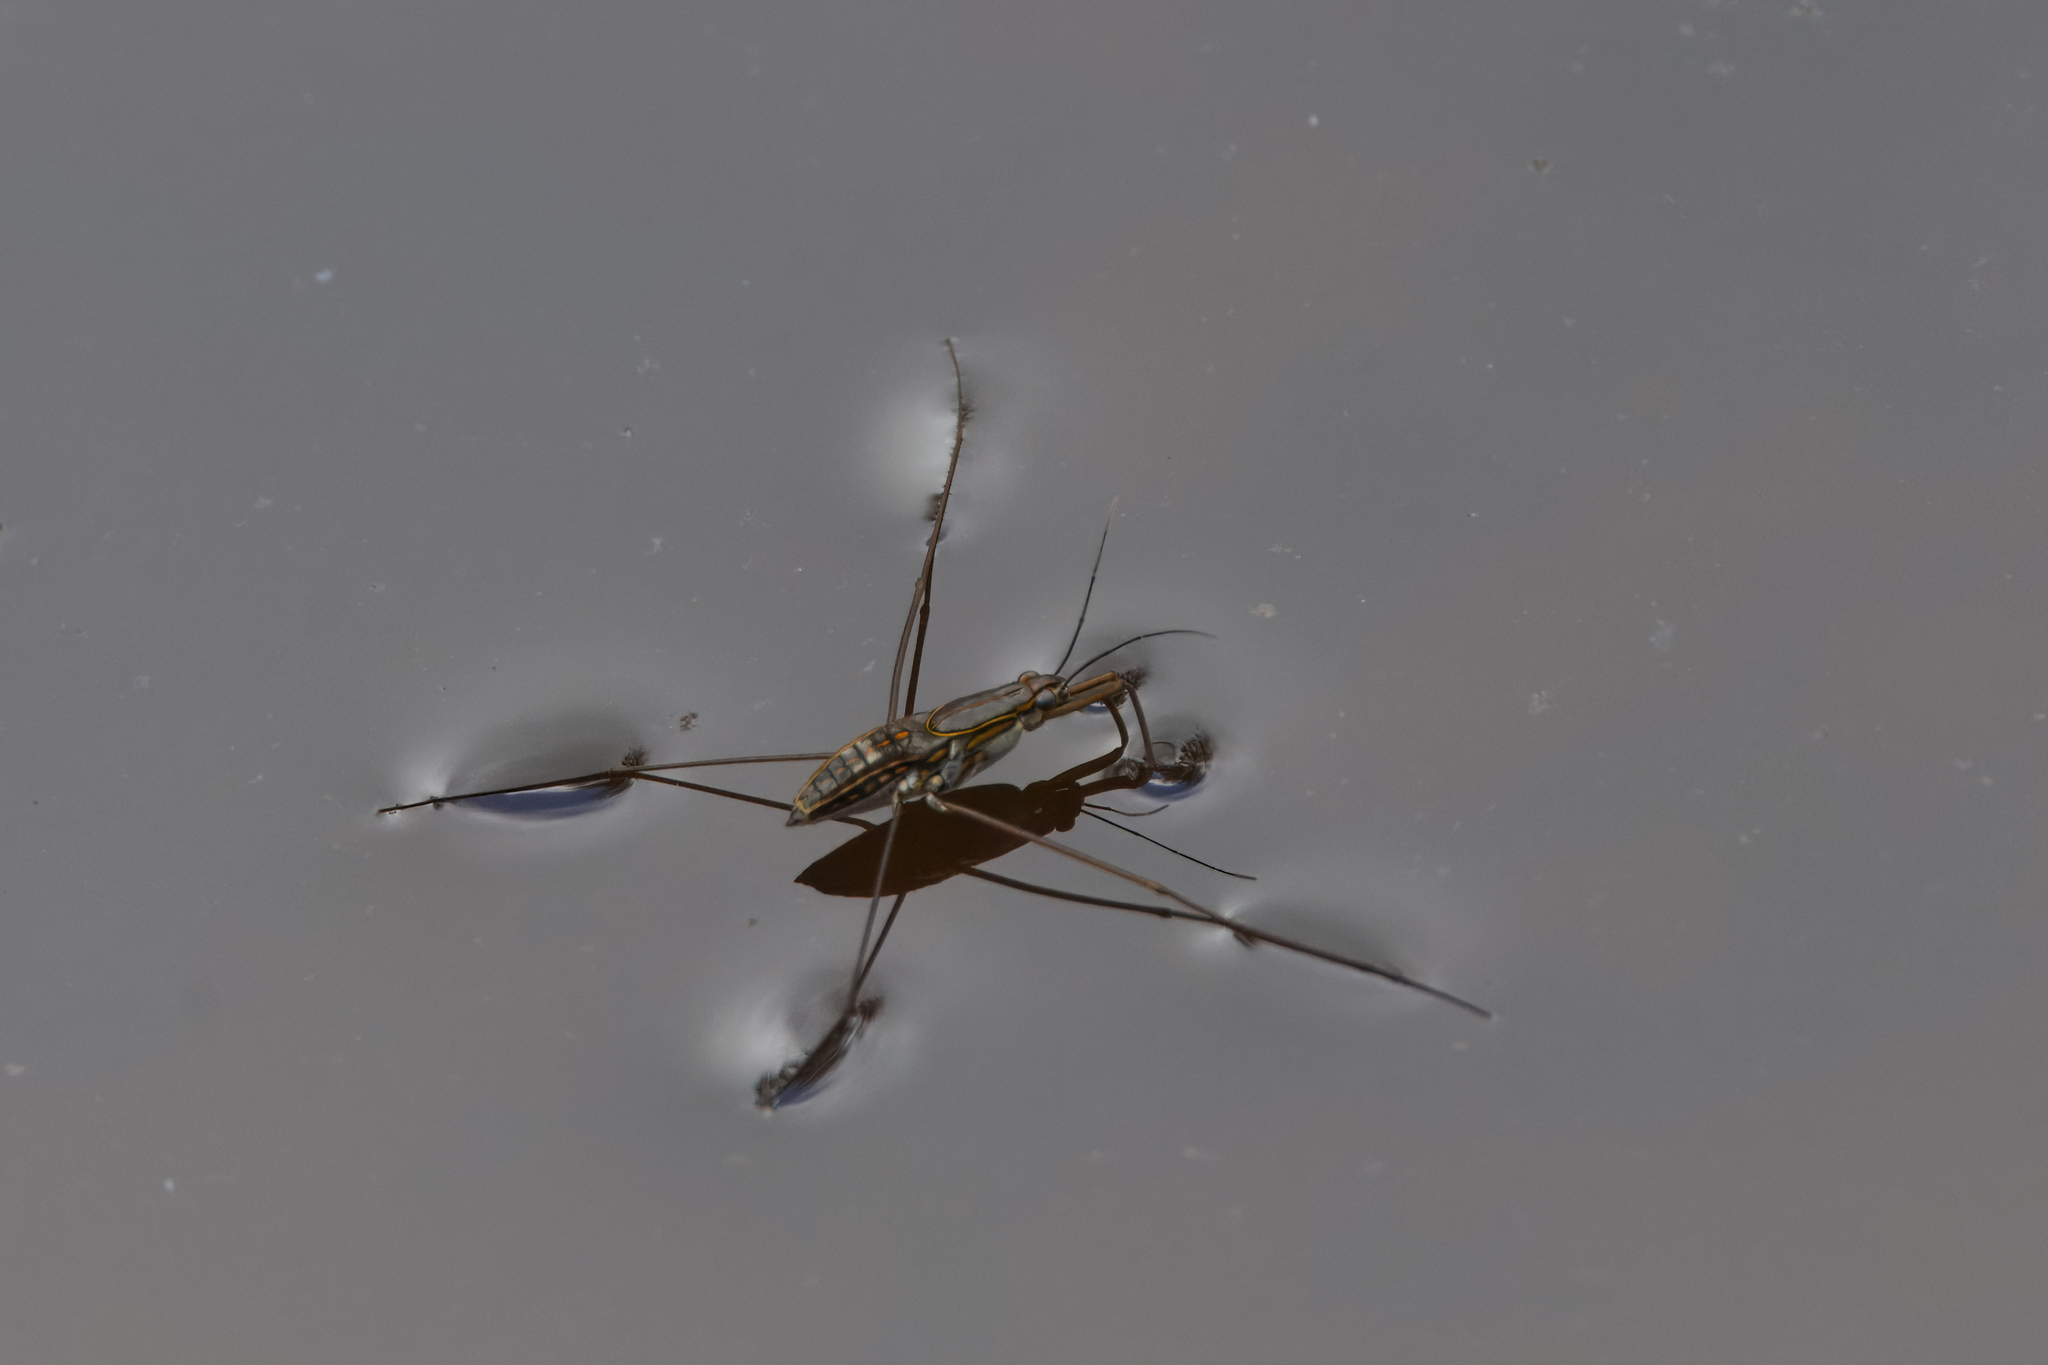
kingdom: Animalia
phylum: Arthropoda
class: Insecta
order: Hemiptera
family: Gerridae
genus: Limnogonus
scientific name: Limnogonus fossarum
